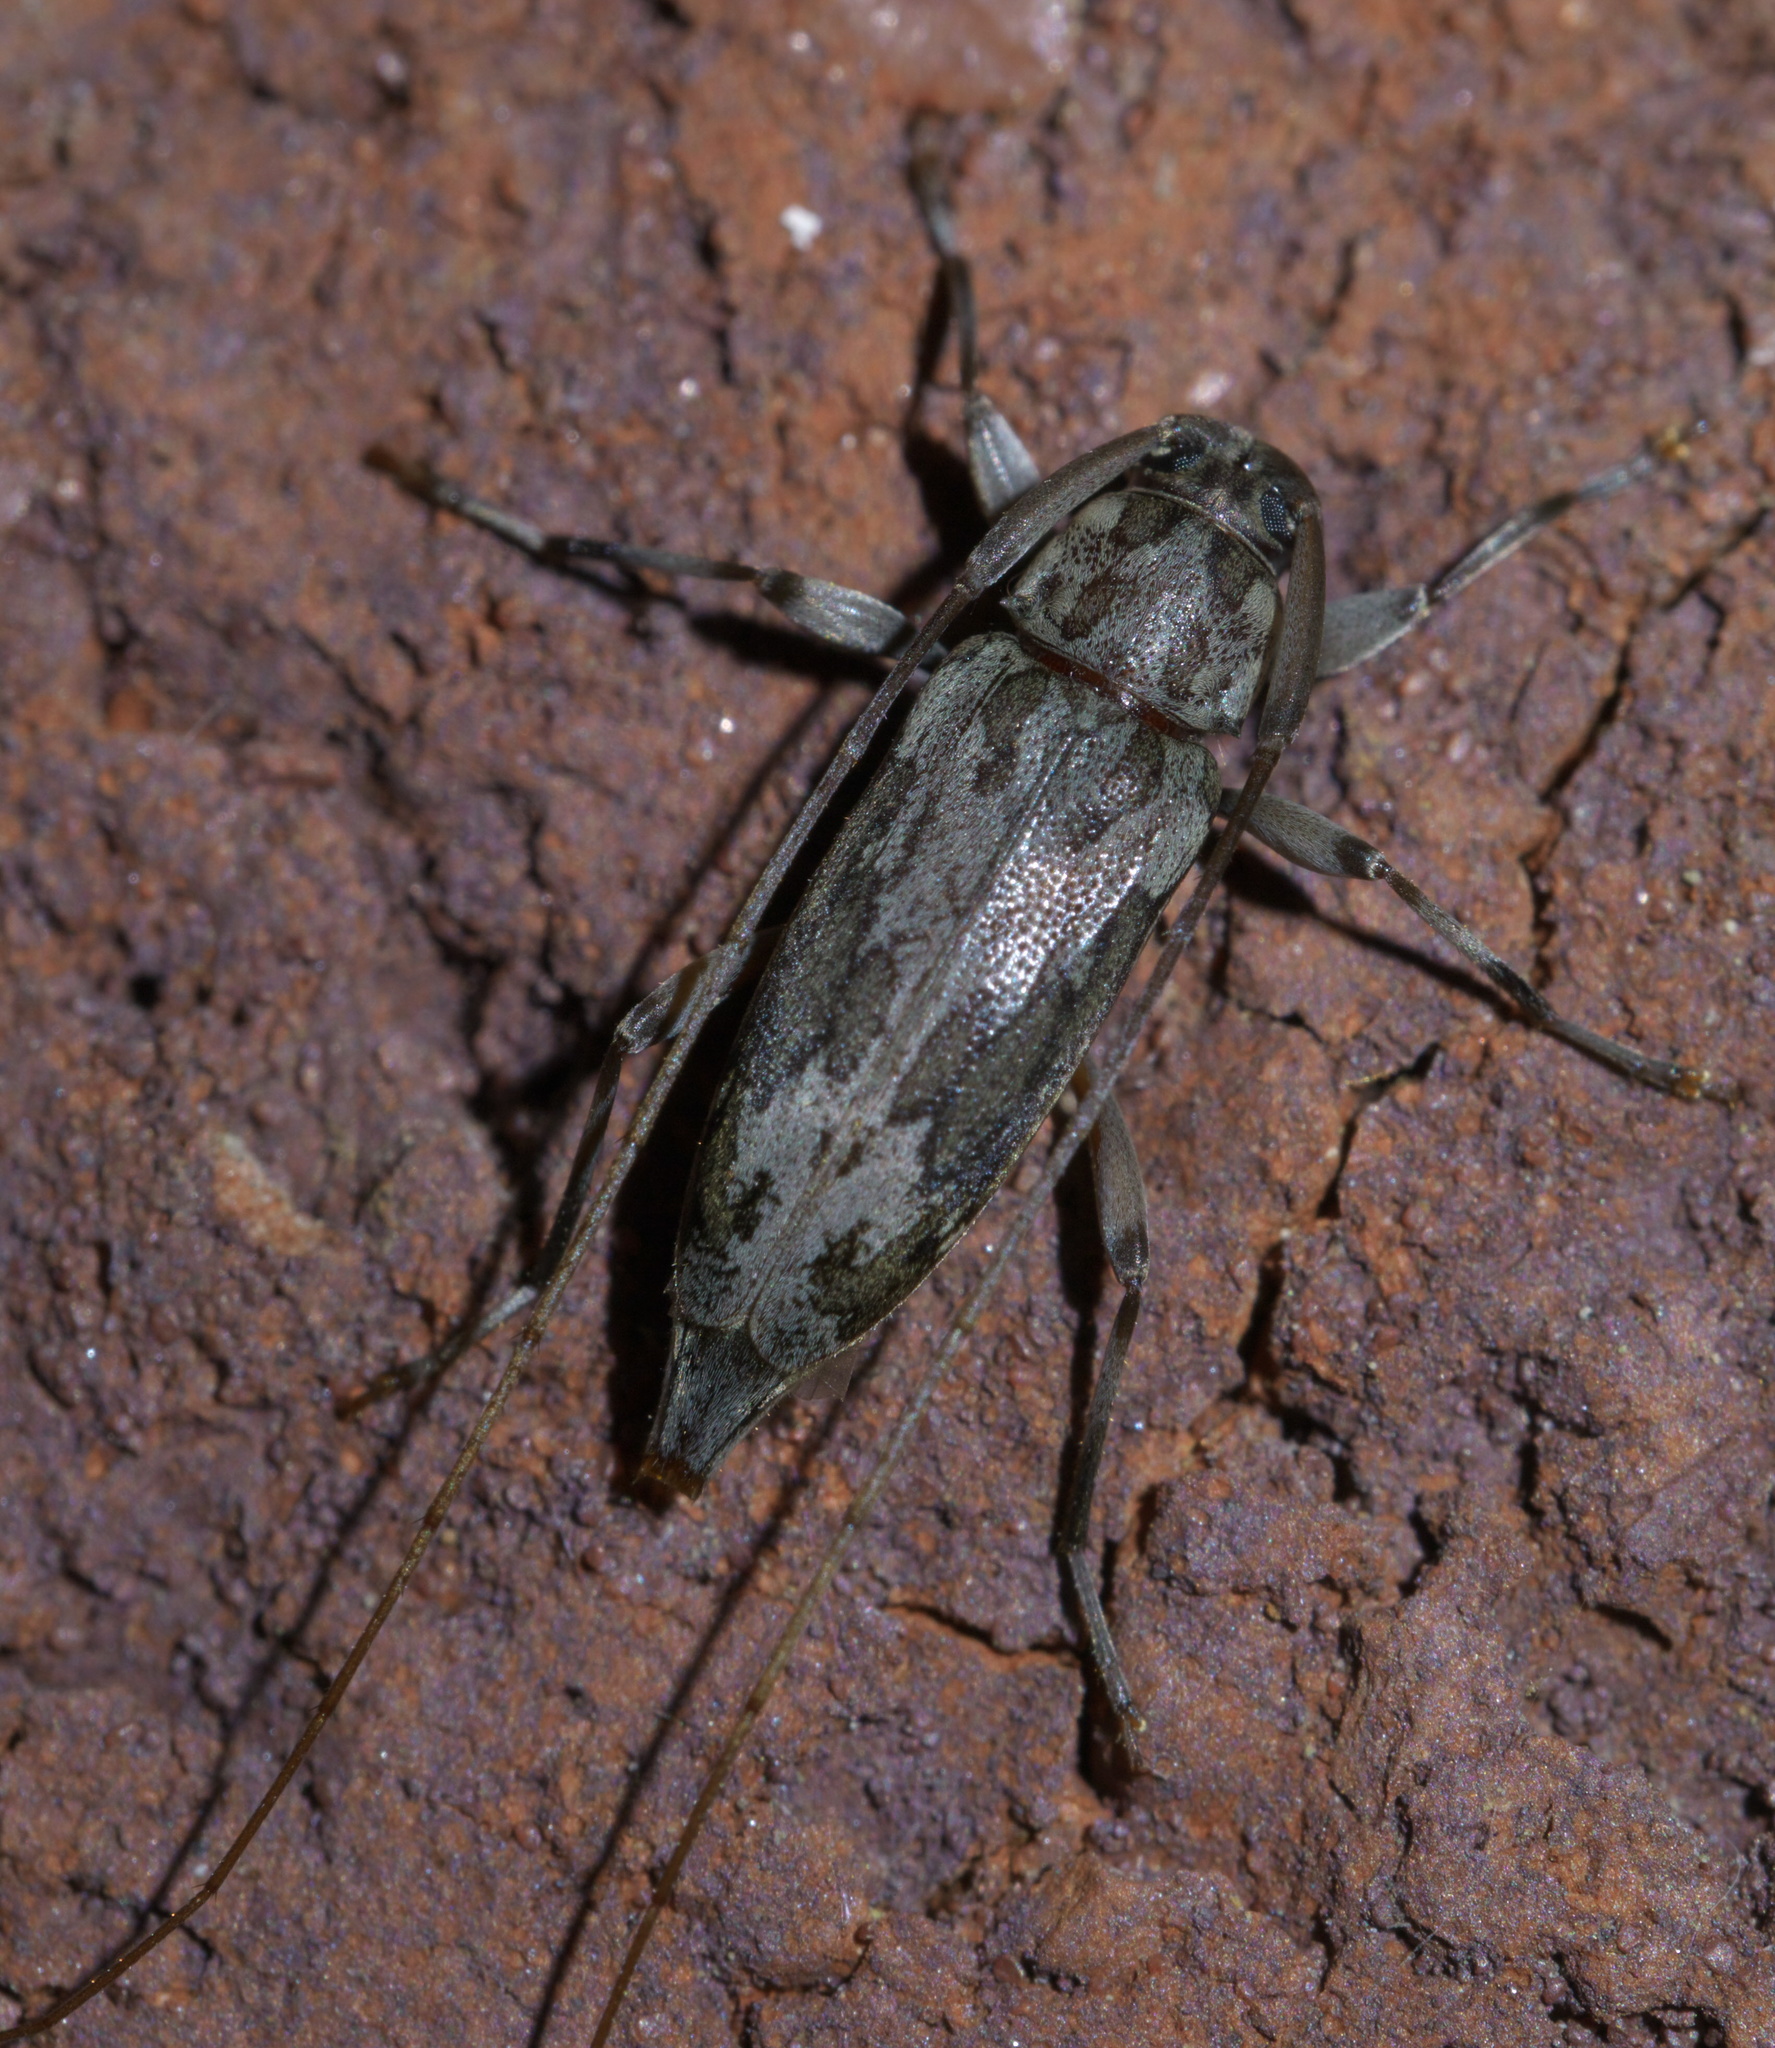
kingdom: Animalia
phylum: Arthropoda
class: Insecta
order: Coleoptera
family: Cerambycidae
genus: Lepturges
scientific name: Lepturges confluens
